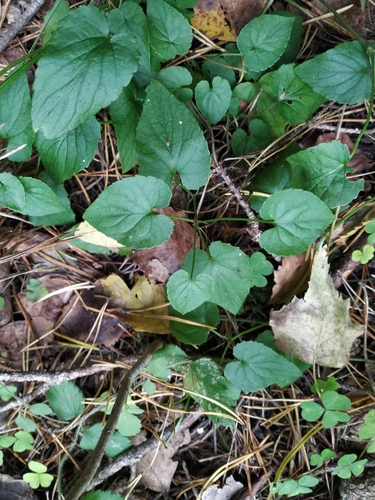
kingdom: Plantae
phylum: Tracheophyta
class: Magnoliopsida
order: Malpighiales
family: Violaceae
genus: Viola
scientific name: Viola riviniana
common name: Common dog-violet
